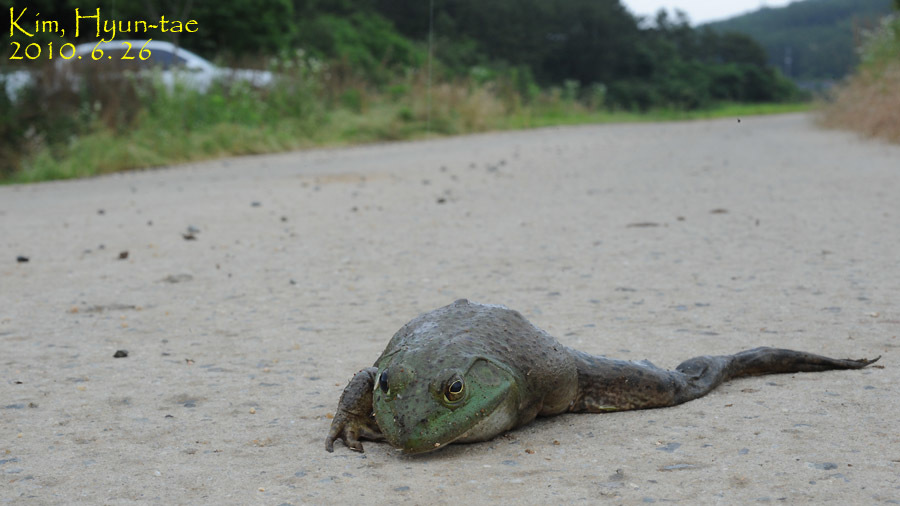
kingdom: Animalia
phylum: Chordata
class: Amphibia
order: Anura
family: Ranidae
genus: Lithobates
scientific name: Lithobates catesbeianus
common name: American bullfrog
